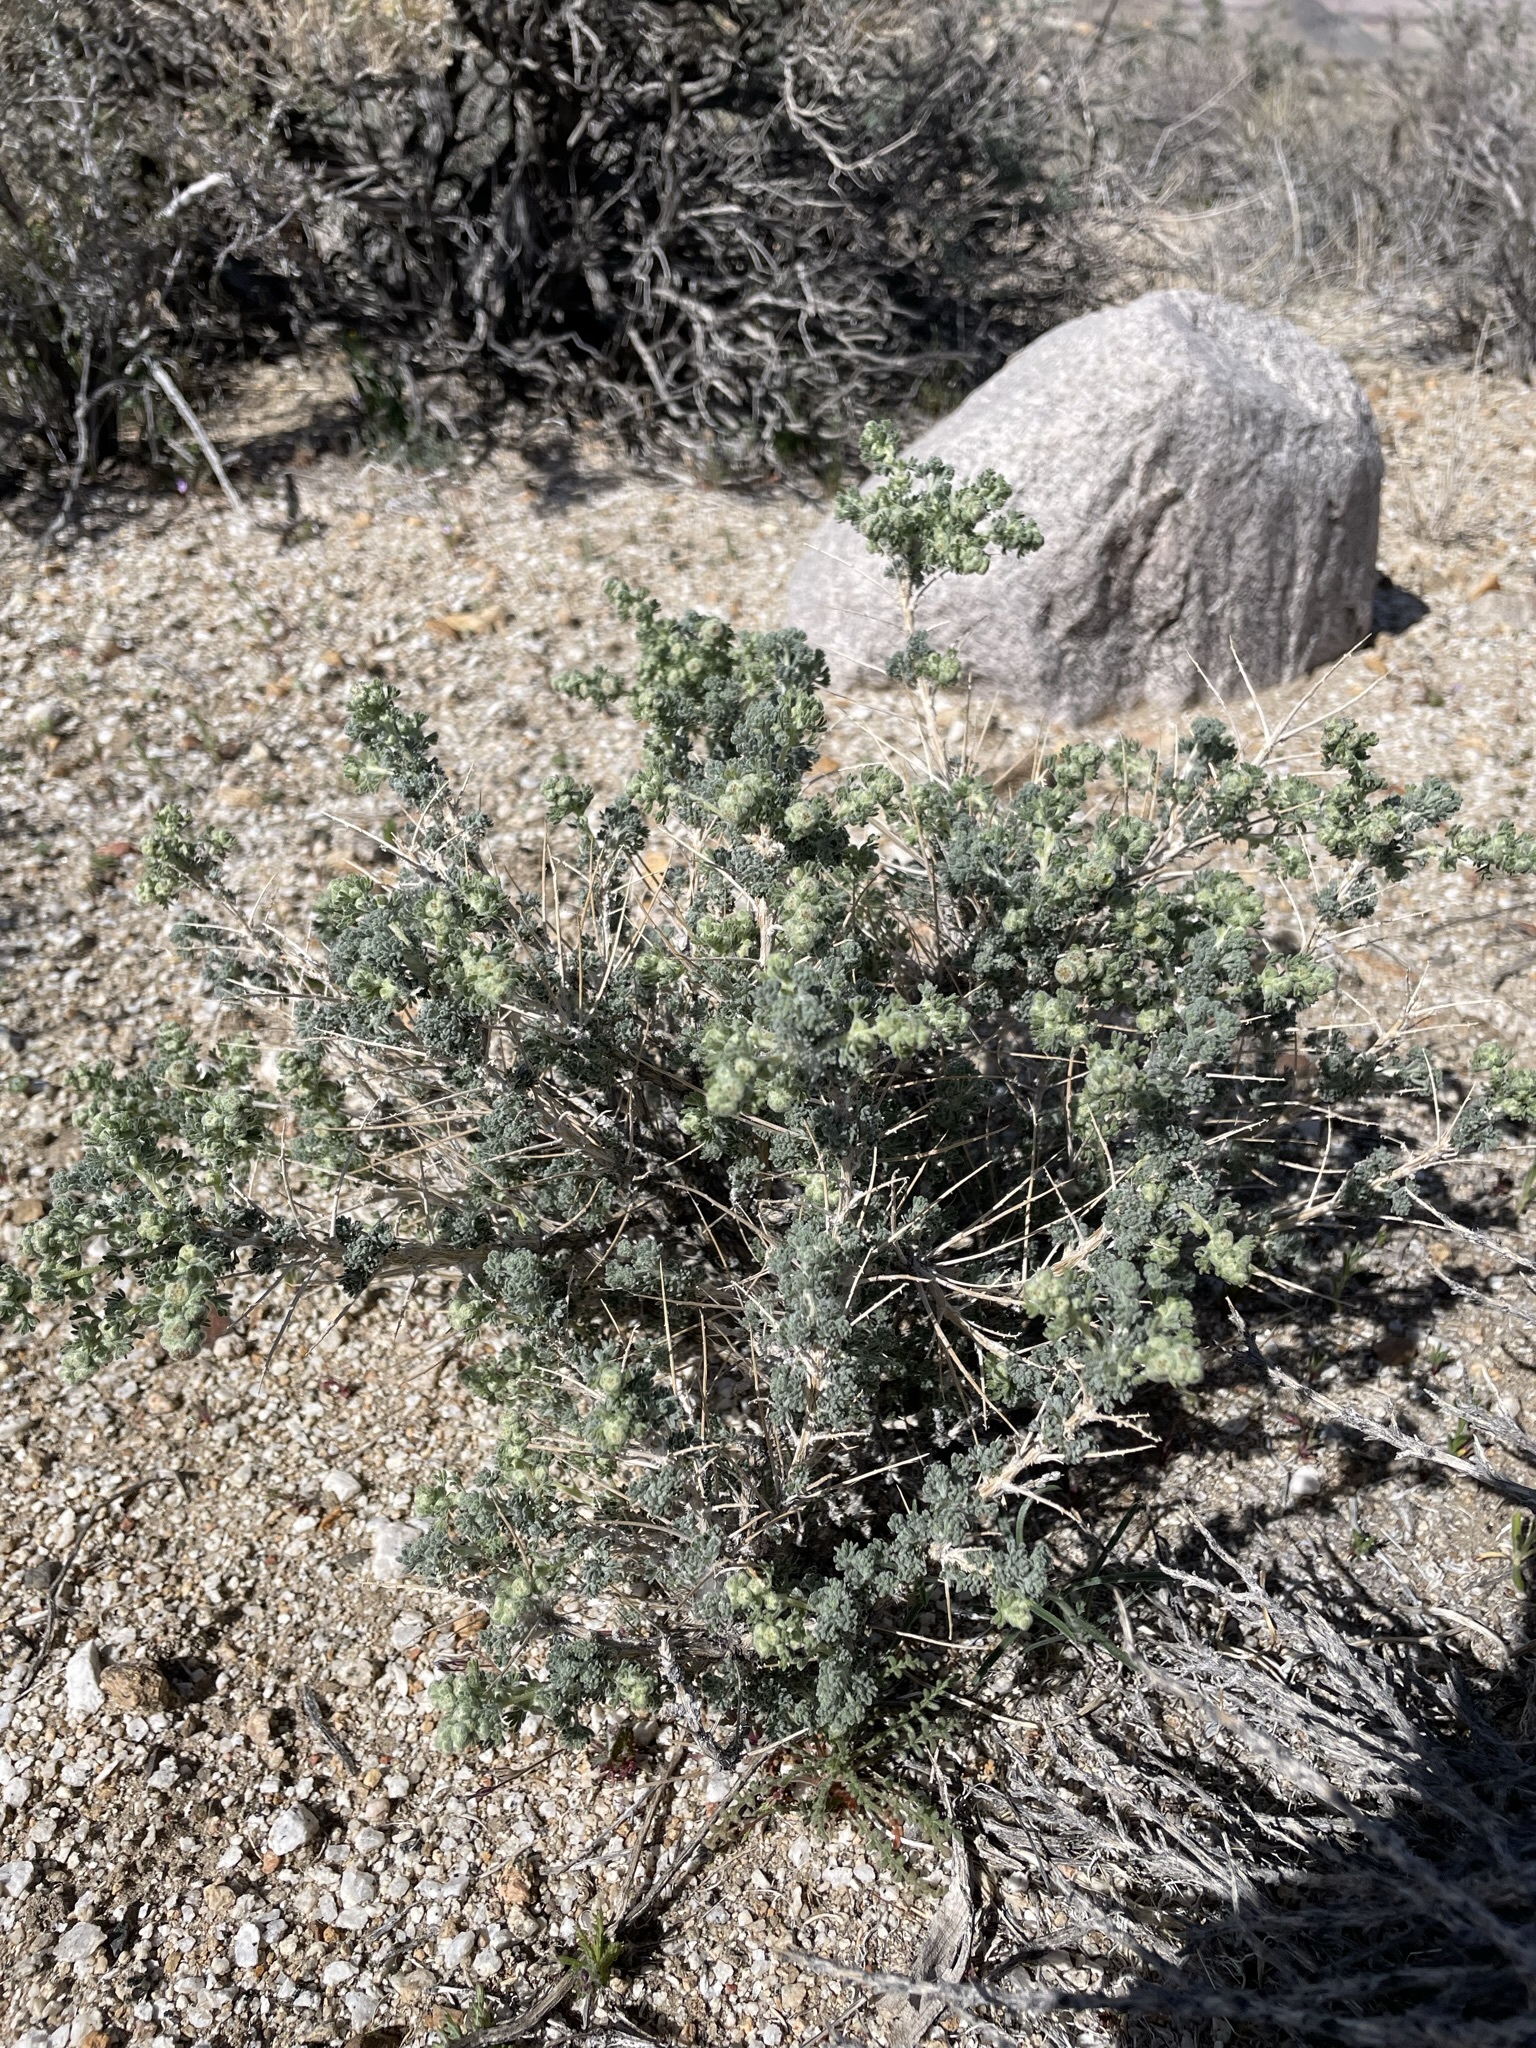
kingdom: Plantae
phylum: Tracheophyta
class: Magnoliopsida
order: Asterales
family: Asteraceae
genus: Artemisia
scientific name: Artemisia spinescens
